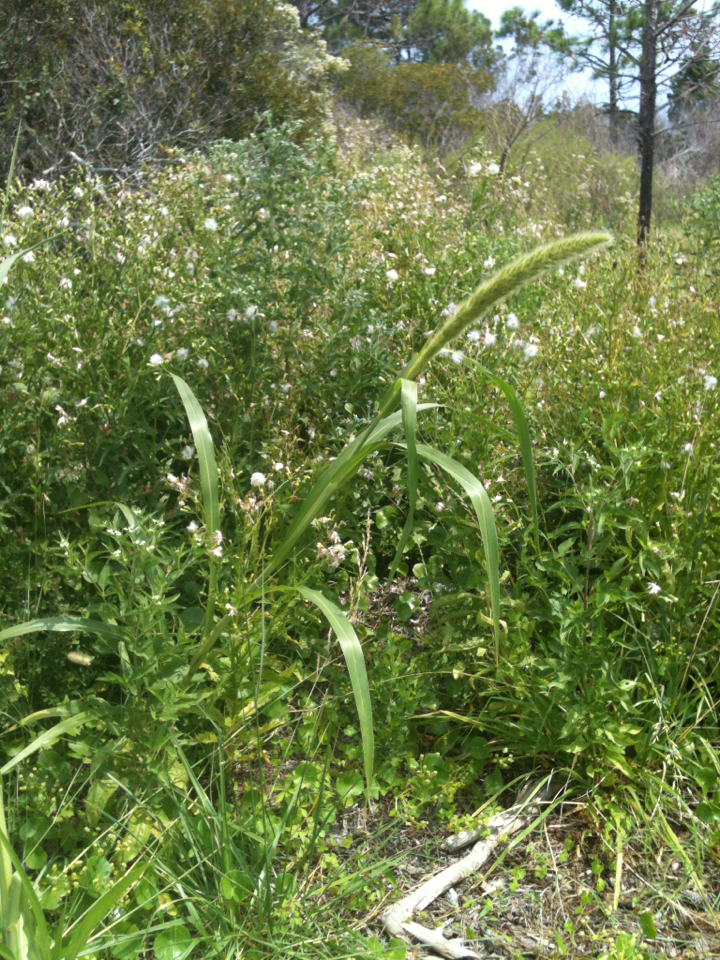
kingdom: Plantae
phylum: Tracheophyta
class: Liliopsida
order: Poales
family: Poaceae
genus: Setaria
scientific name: Setaria magna
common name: Giant bristle grass
